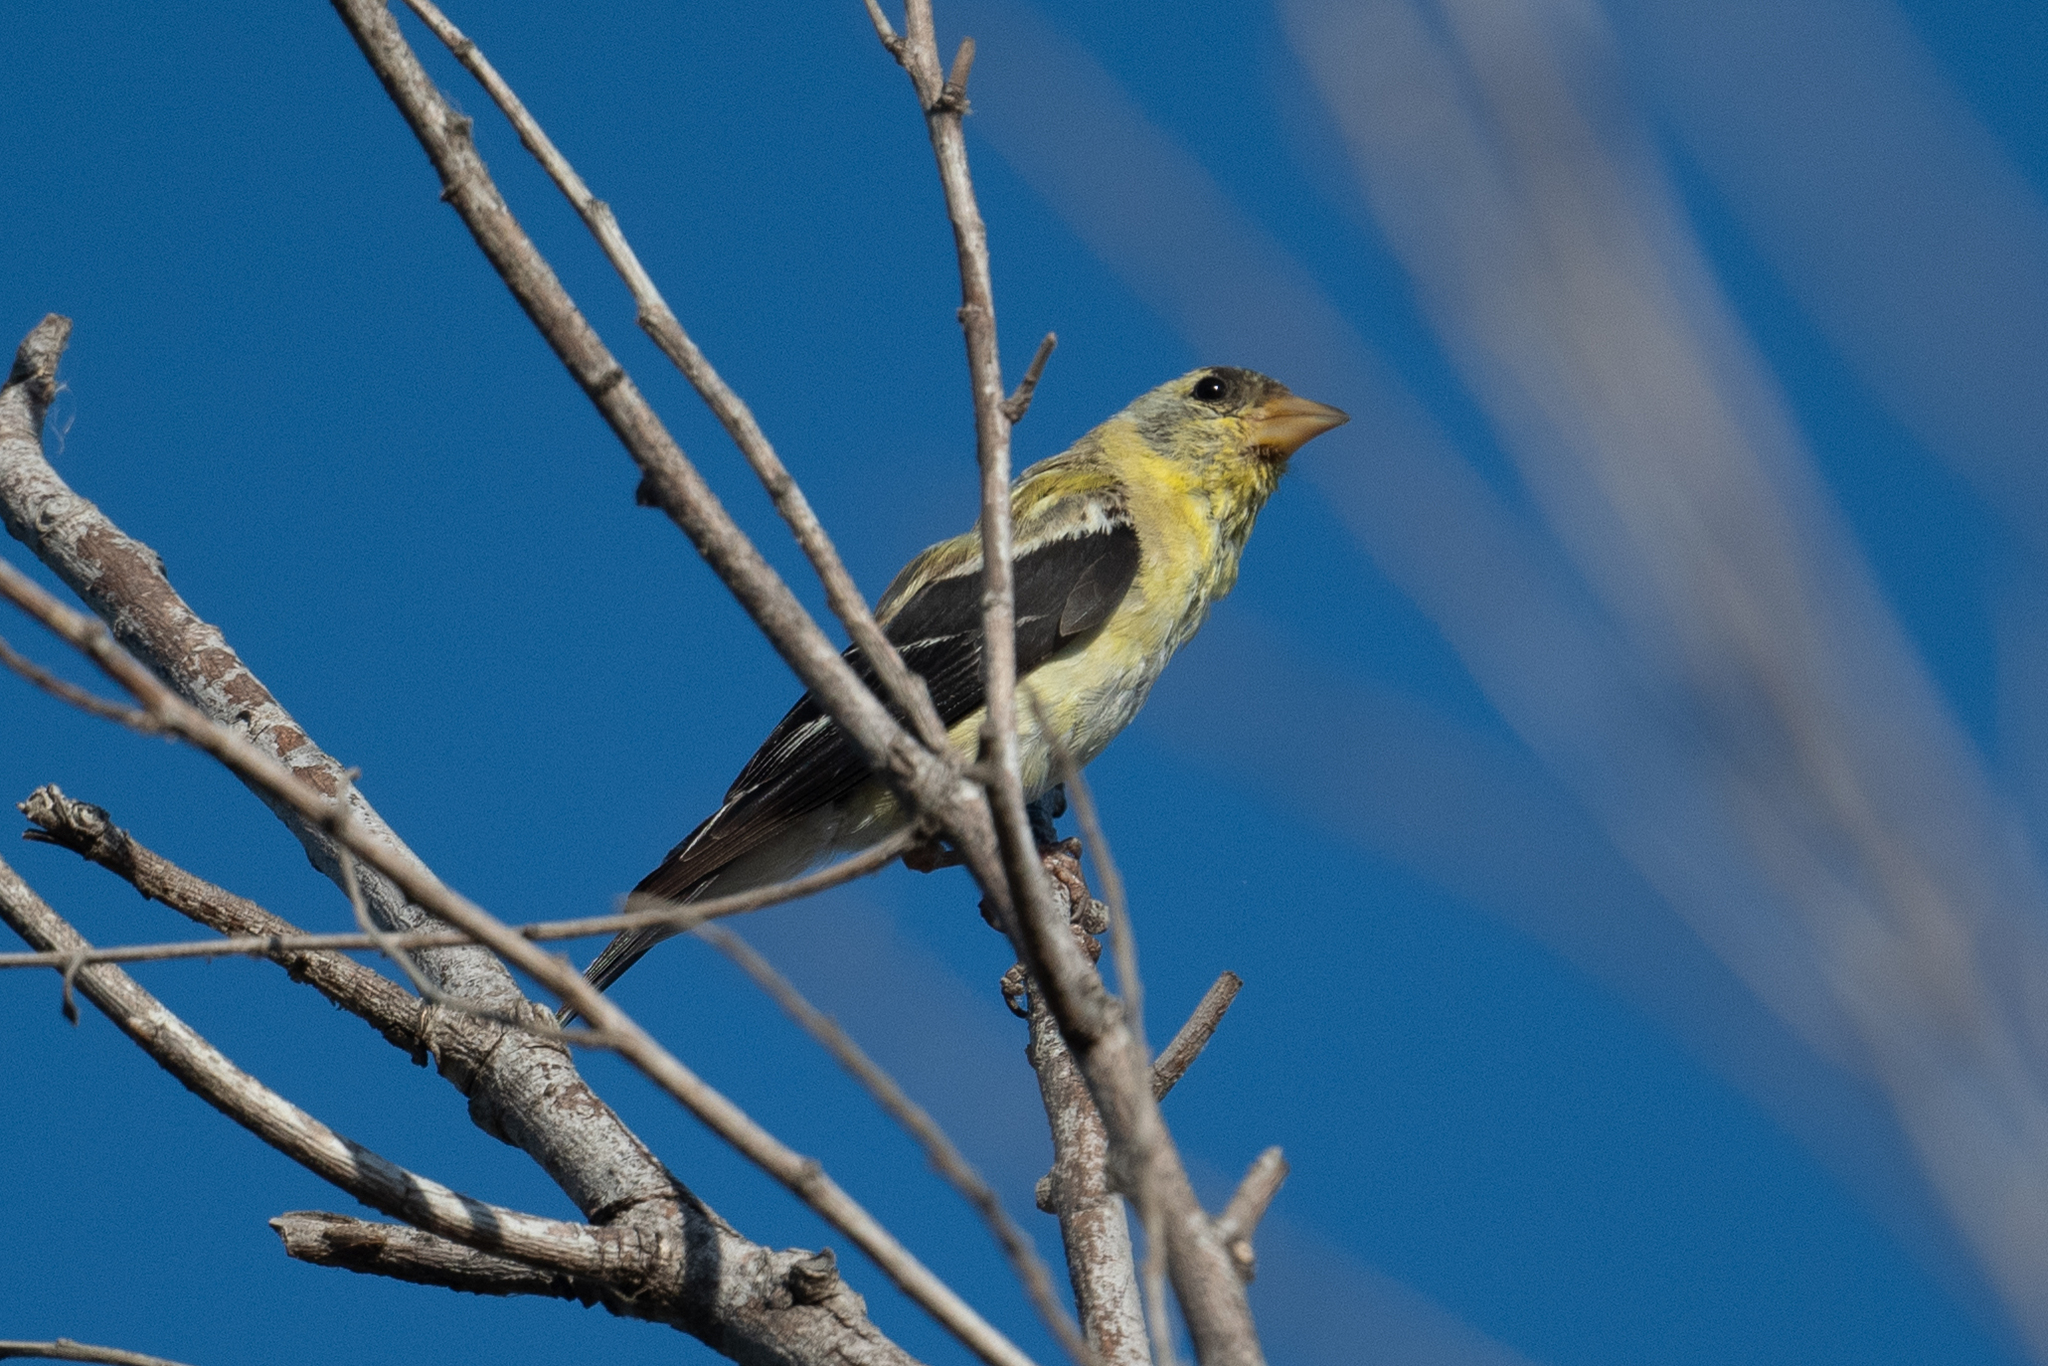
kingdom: Animalia
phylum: Chordata
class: Aves
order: Passeriformes
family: Fringillidae
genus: Spinus
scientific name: Spinus tristis
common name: American goldfinch
